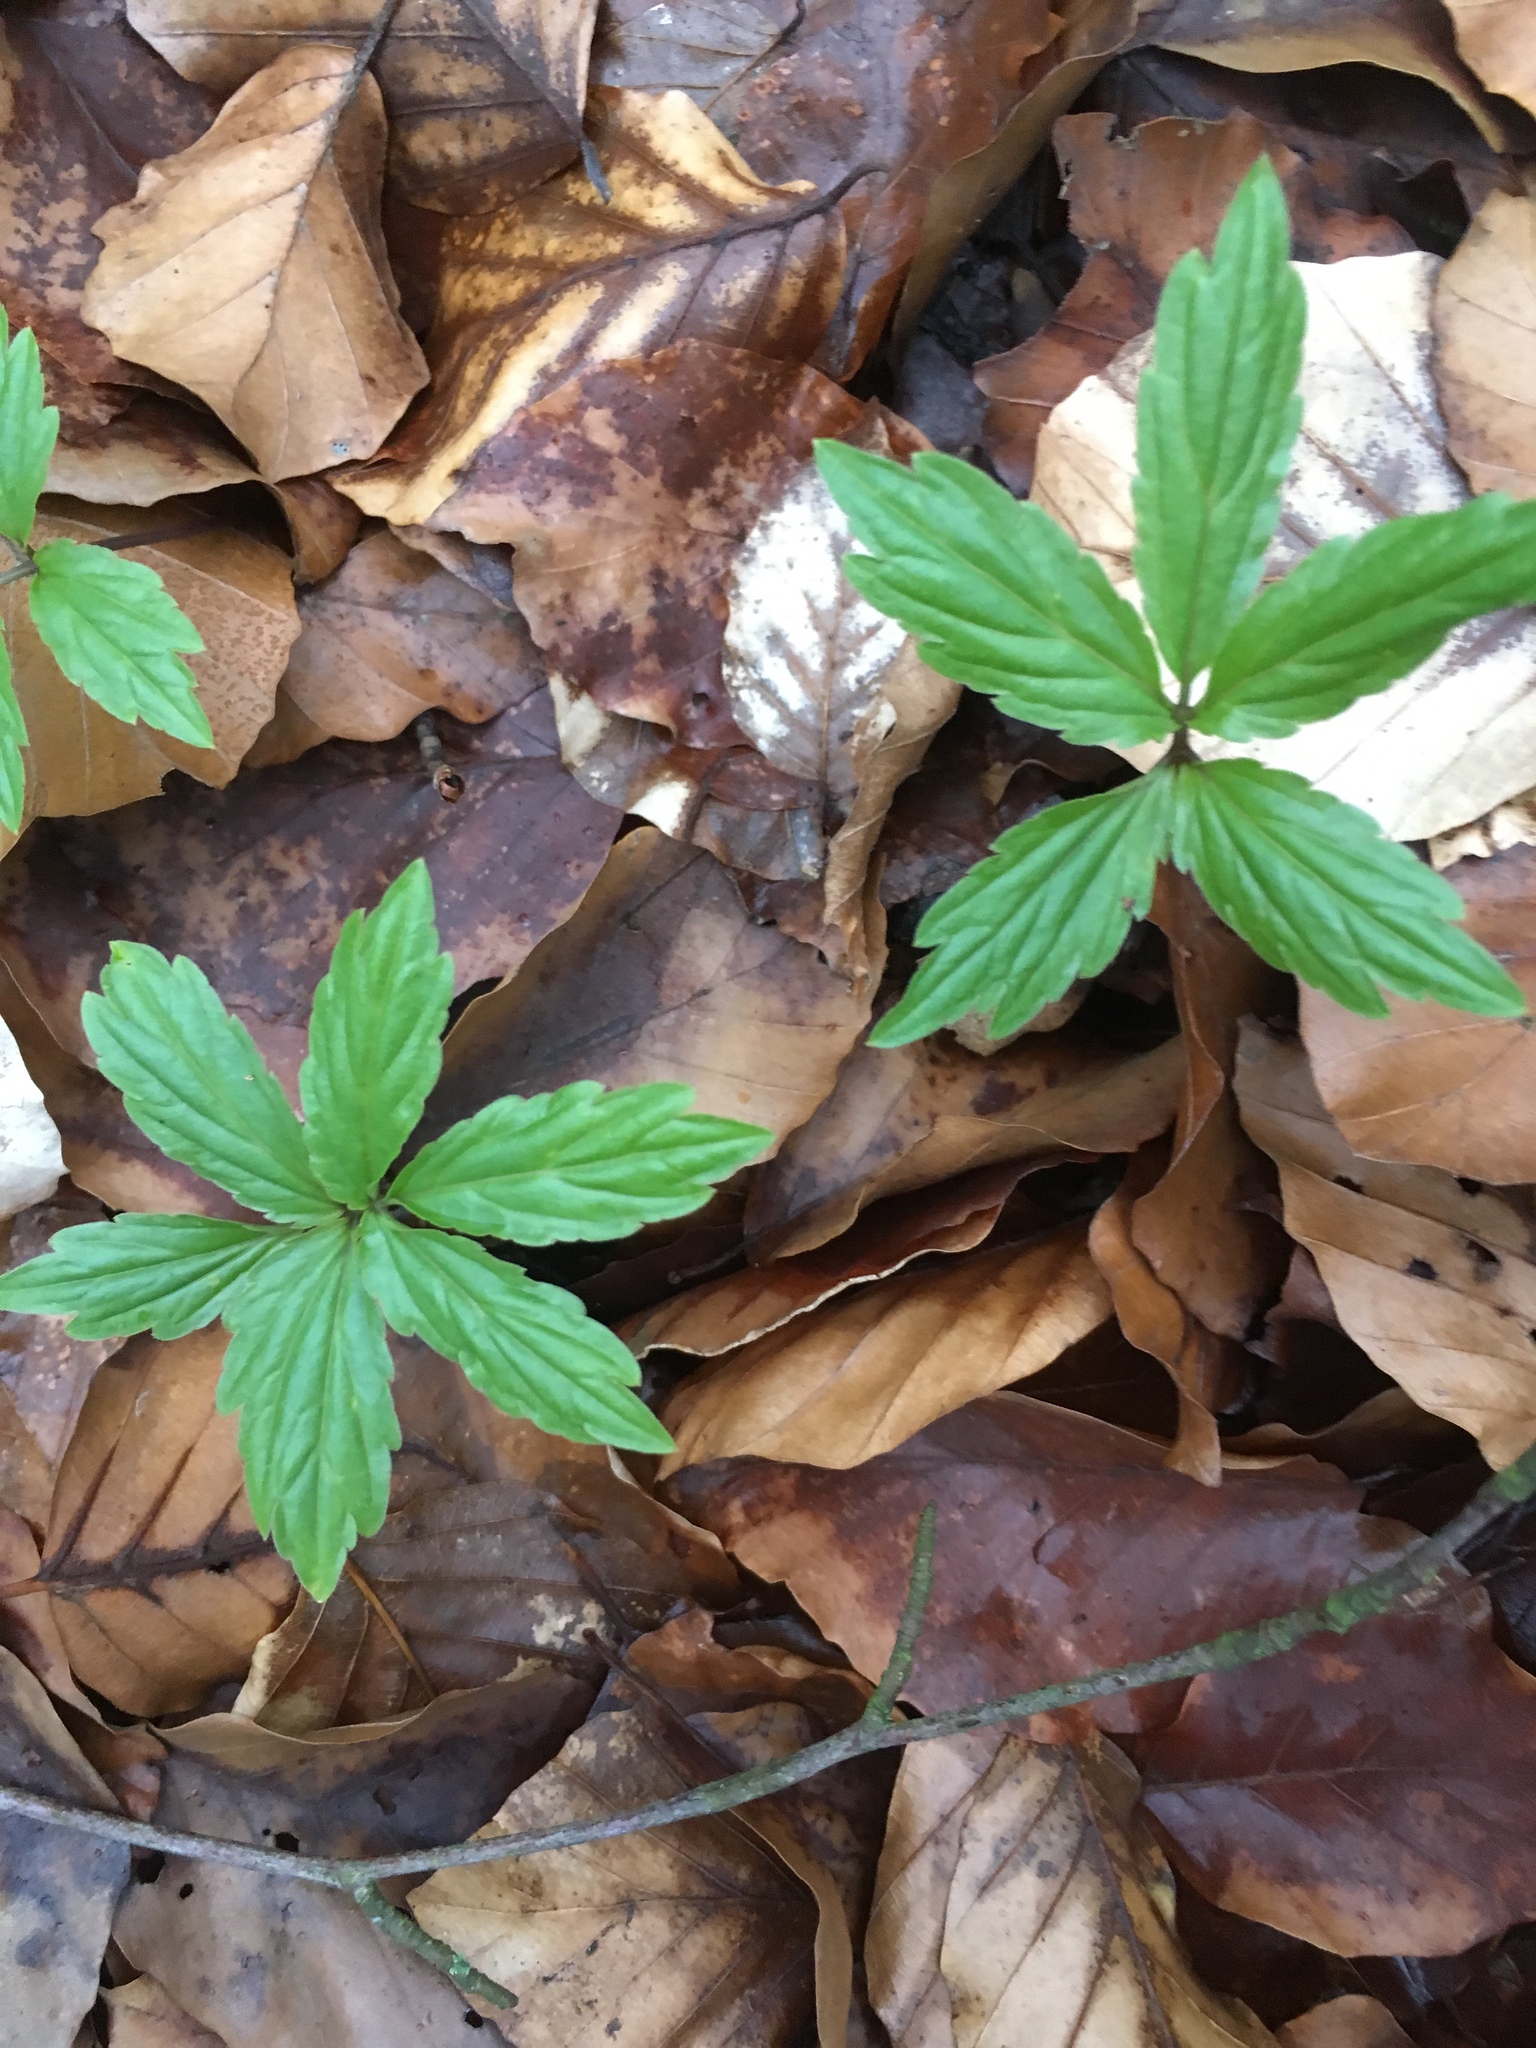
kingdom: Plantae
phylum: Tracheophyta
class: Magnoliopsida
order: Brassicales
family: Brassicaceae
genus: Cardamine
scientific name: Cardamine bulbifera
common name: Coralroot bittercress
